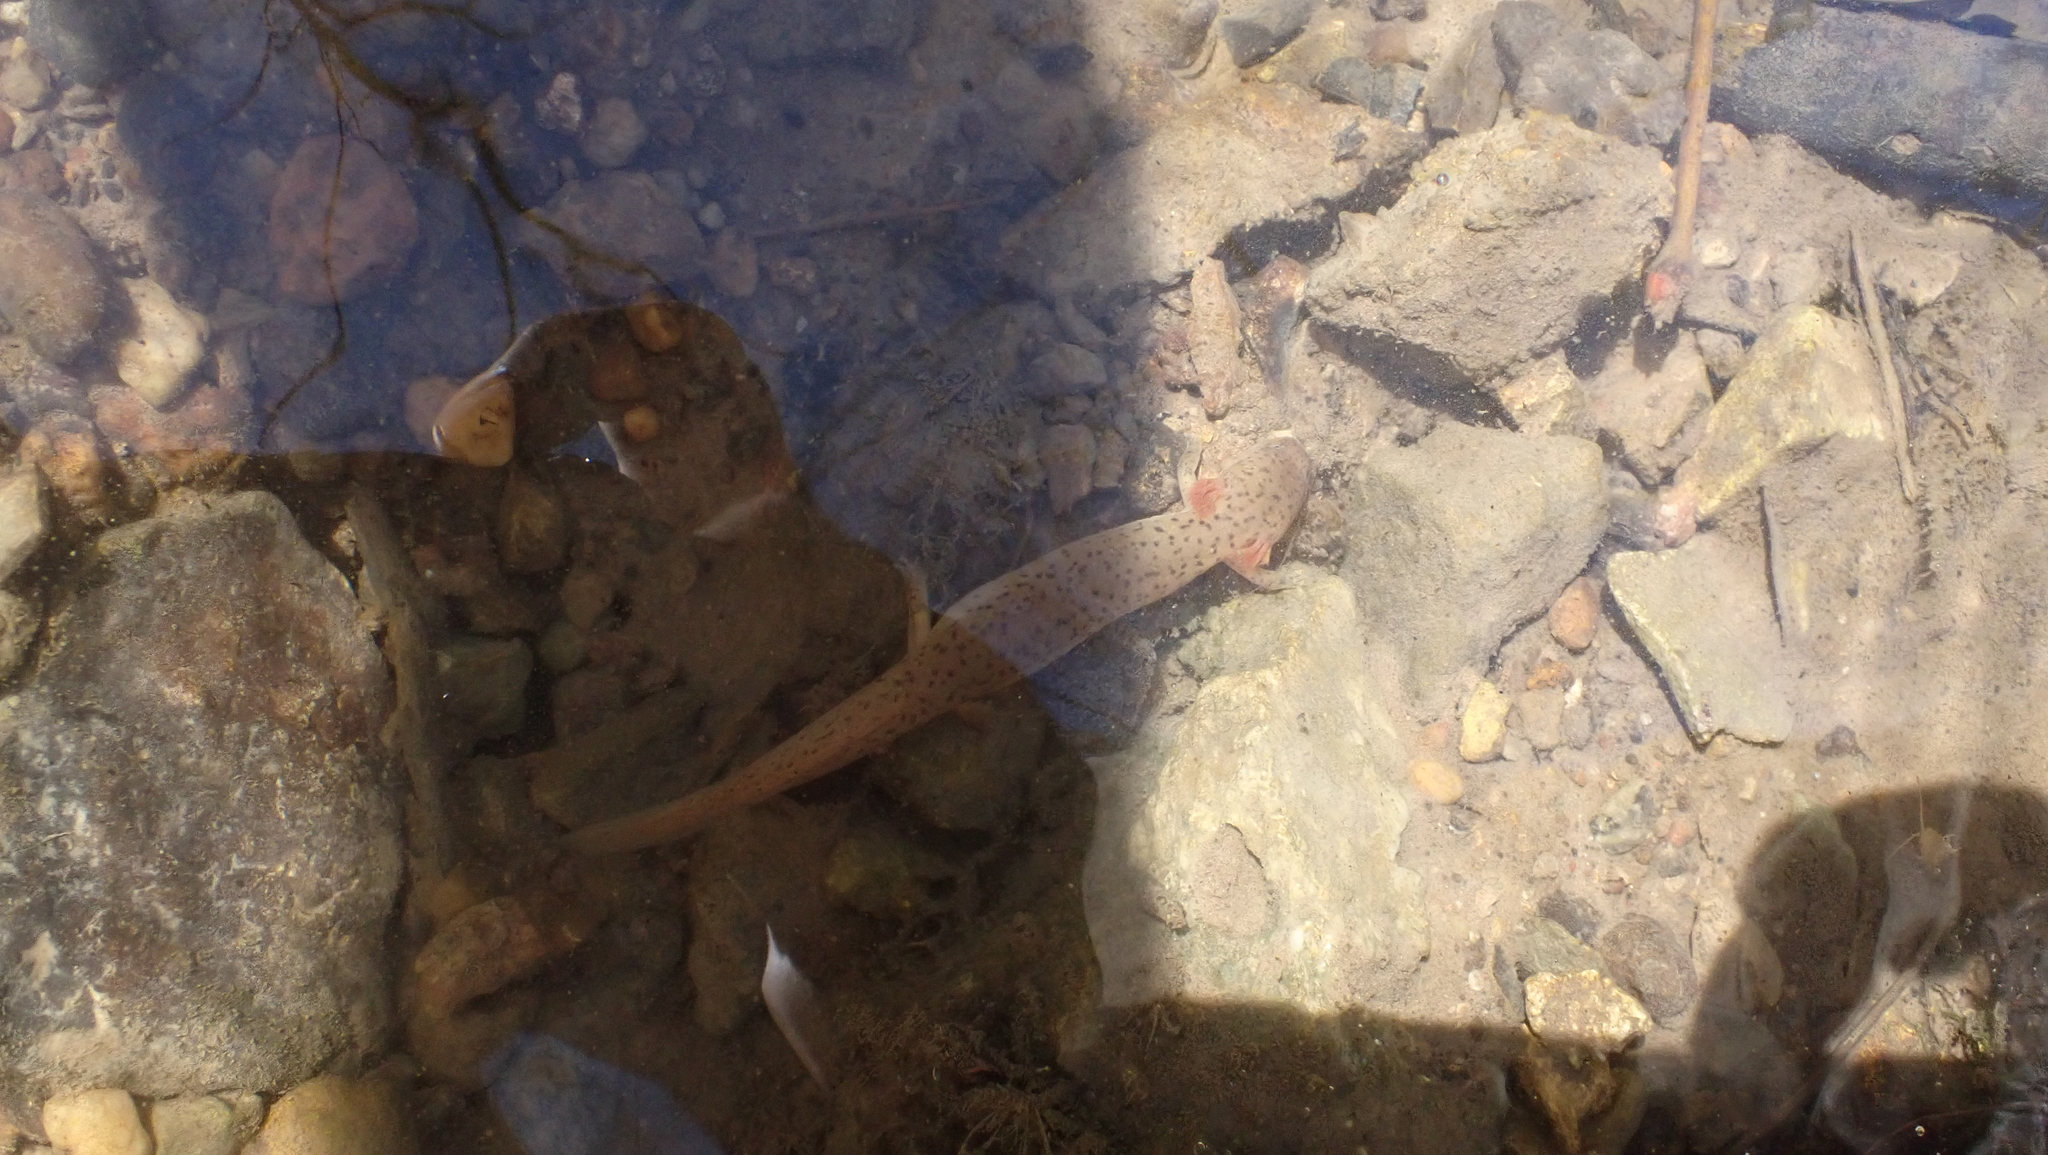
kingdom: Animalia
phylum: Chordata
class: Amphibia
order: Caudata
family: Plethodontidae
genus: Pseudotriton
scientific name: Pseudotriton ruber
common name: Red salamander
